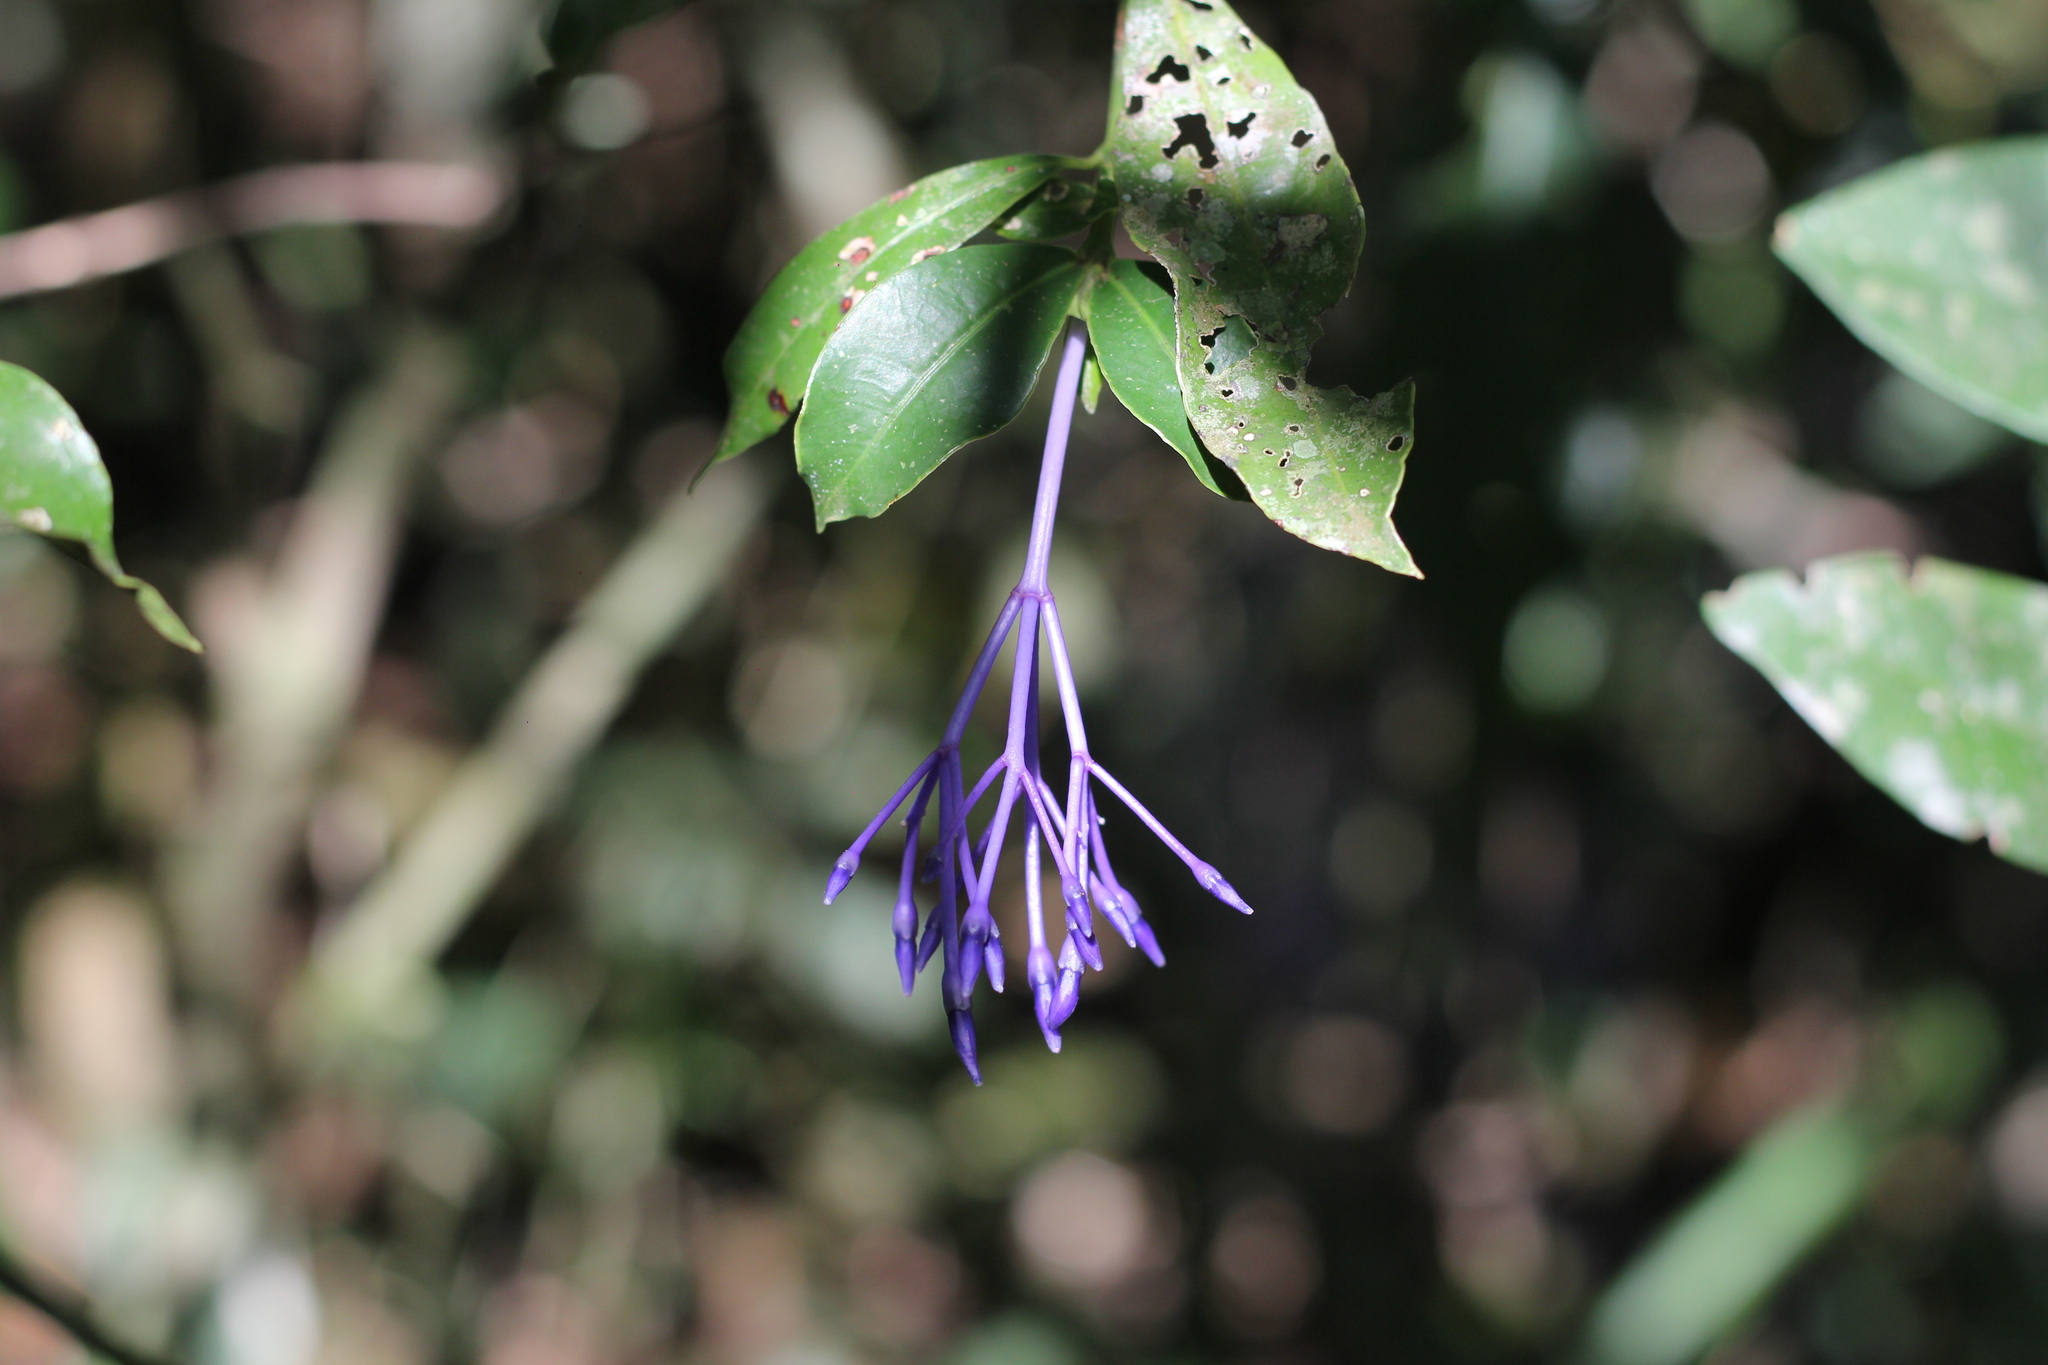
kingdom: Plantae
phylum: Tracheophyta
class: Magnoliopsida
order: Gentianales
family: Rubiaceae
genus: Faramea
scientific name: Faramea hyacinthina
